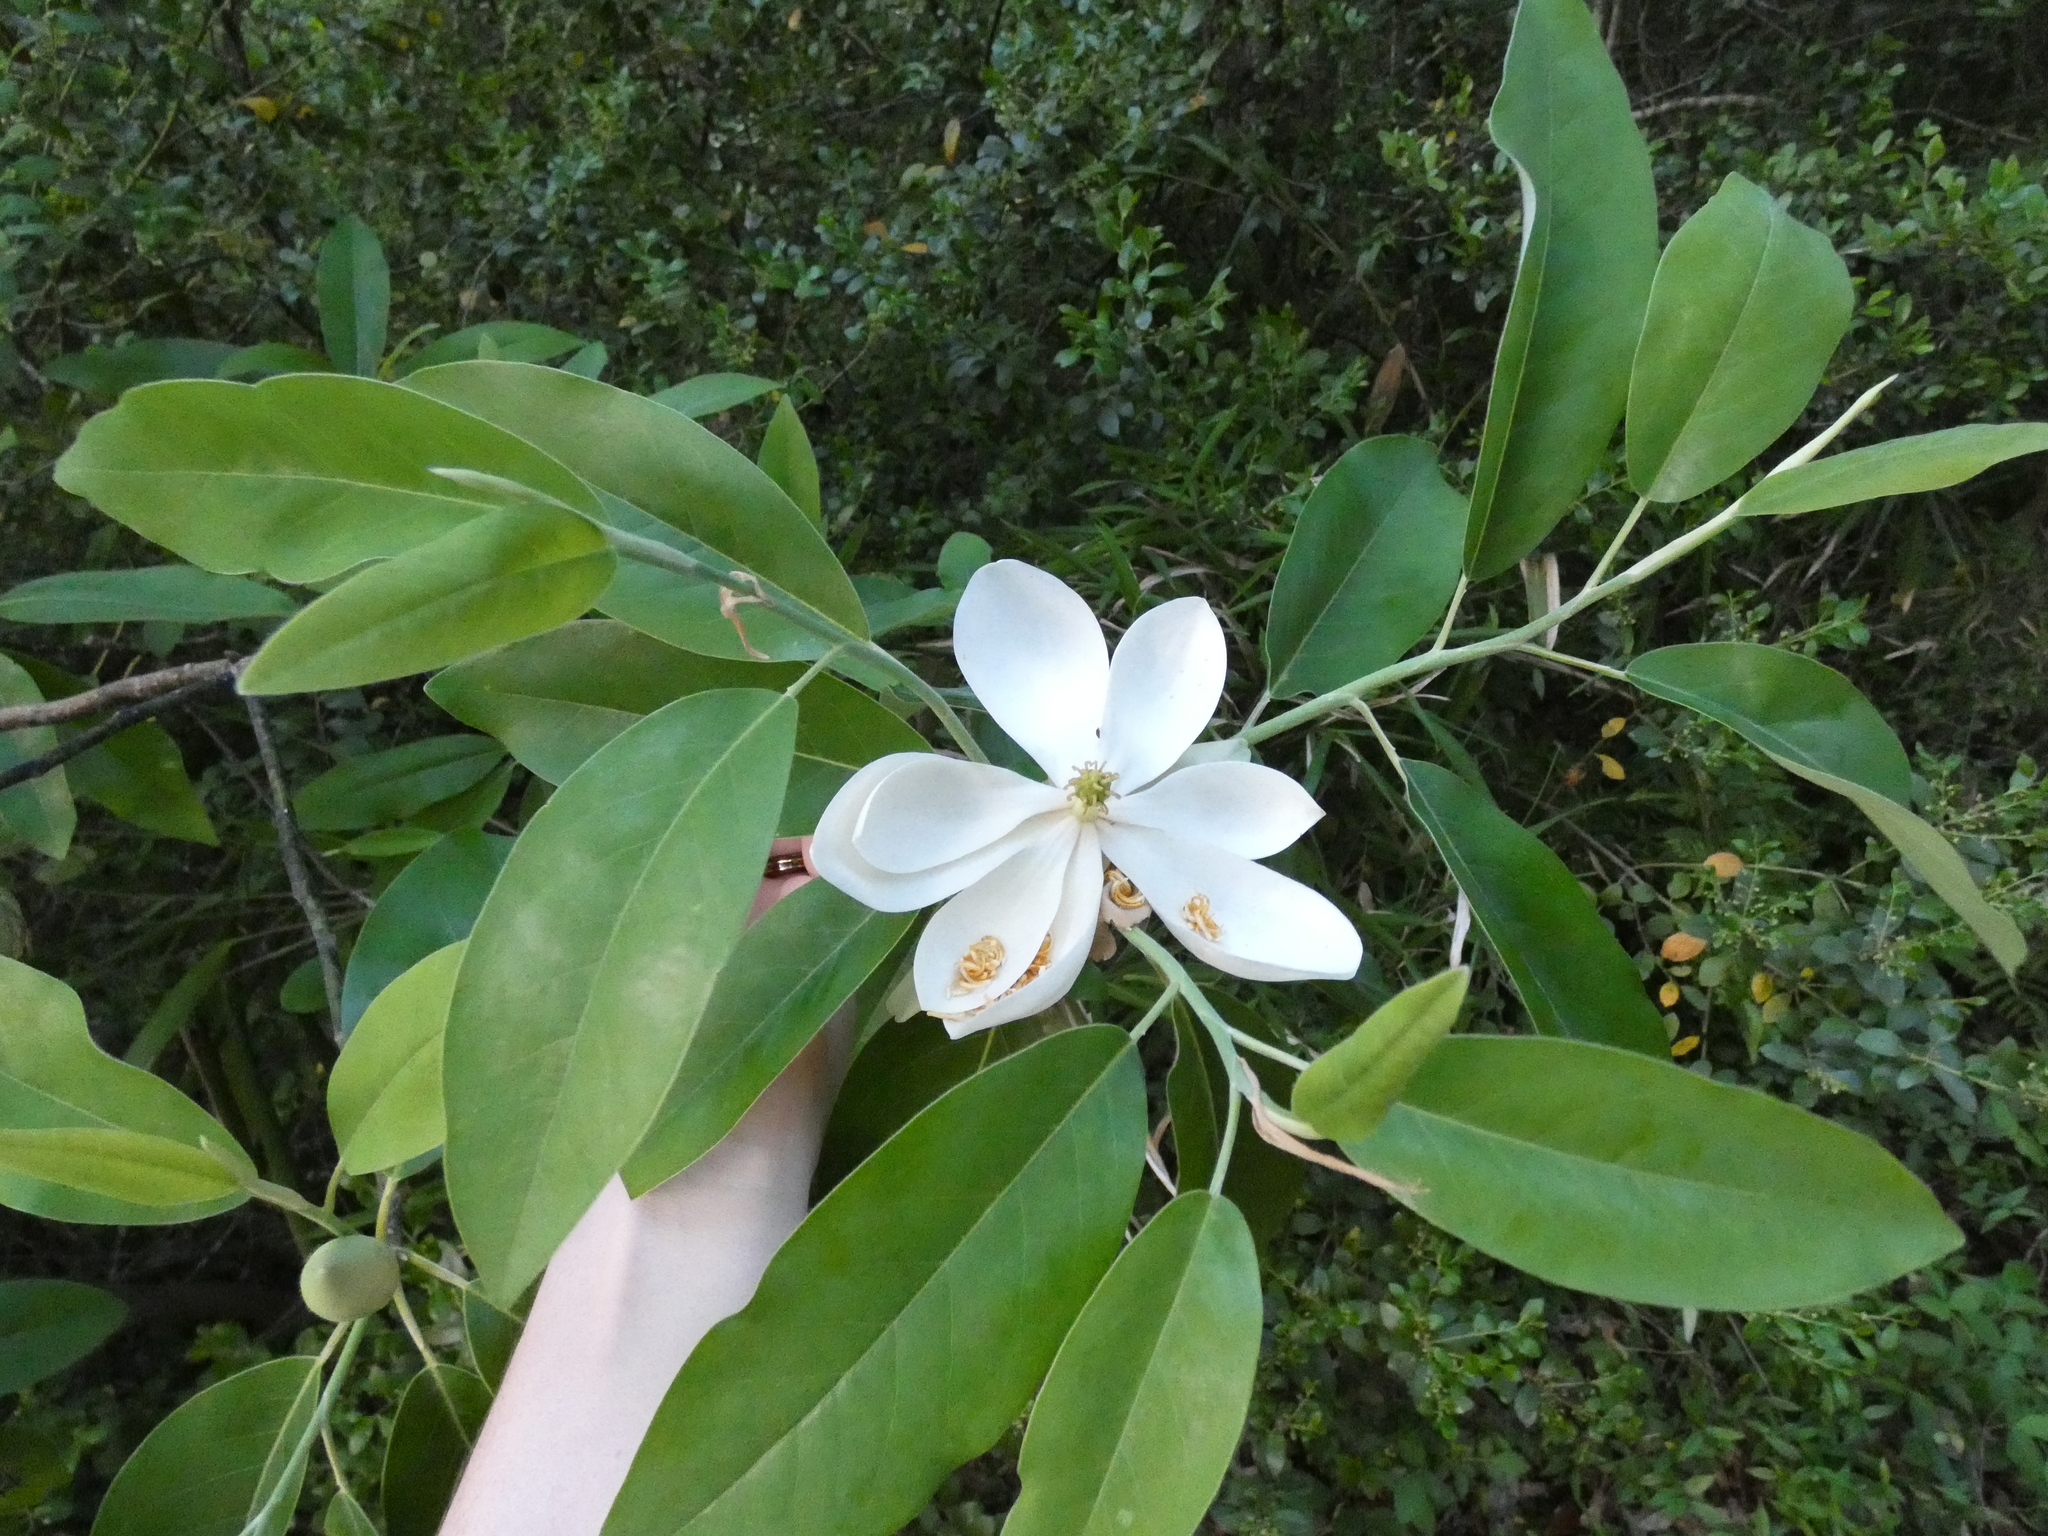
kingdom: Plantae
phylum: Tracheophyta
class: Magnoliopsida
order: Magnoliales
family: Magnoliaceae
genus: Magnolia
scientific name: Magnolia virginiana
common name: Swamp bay
